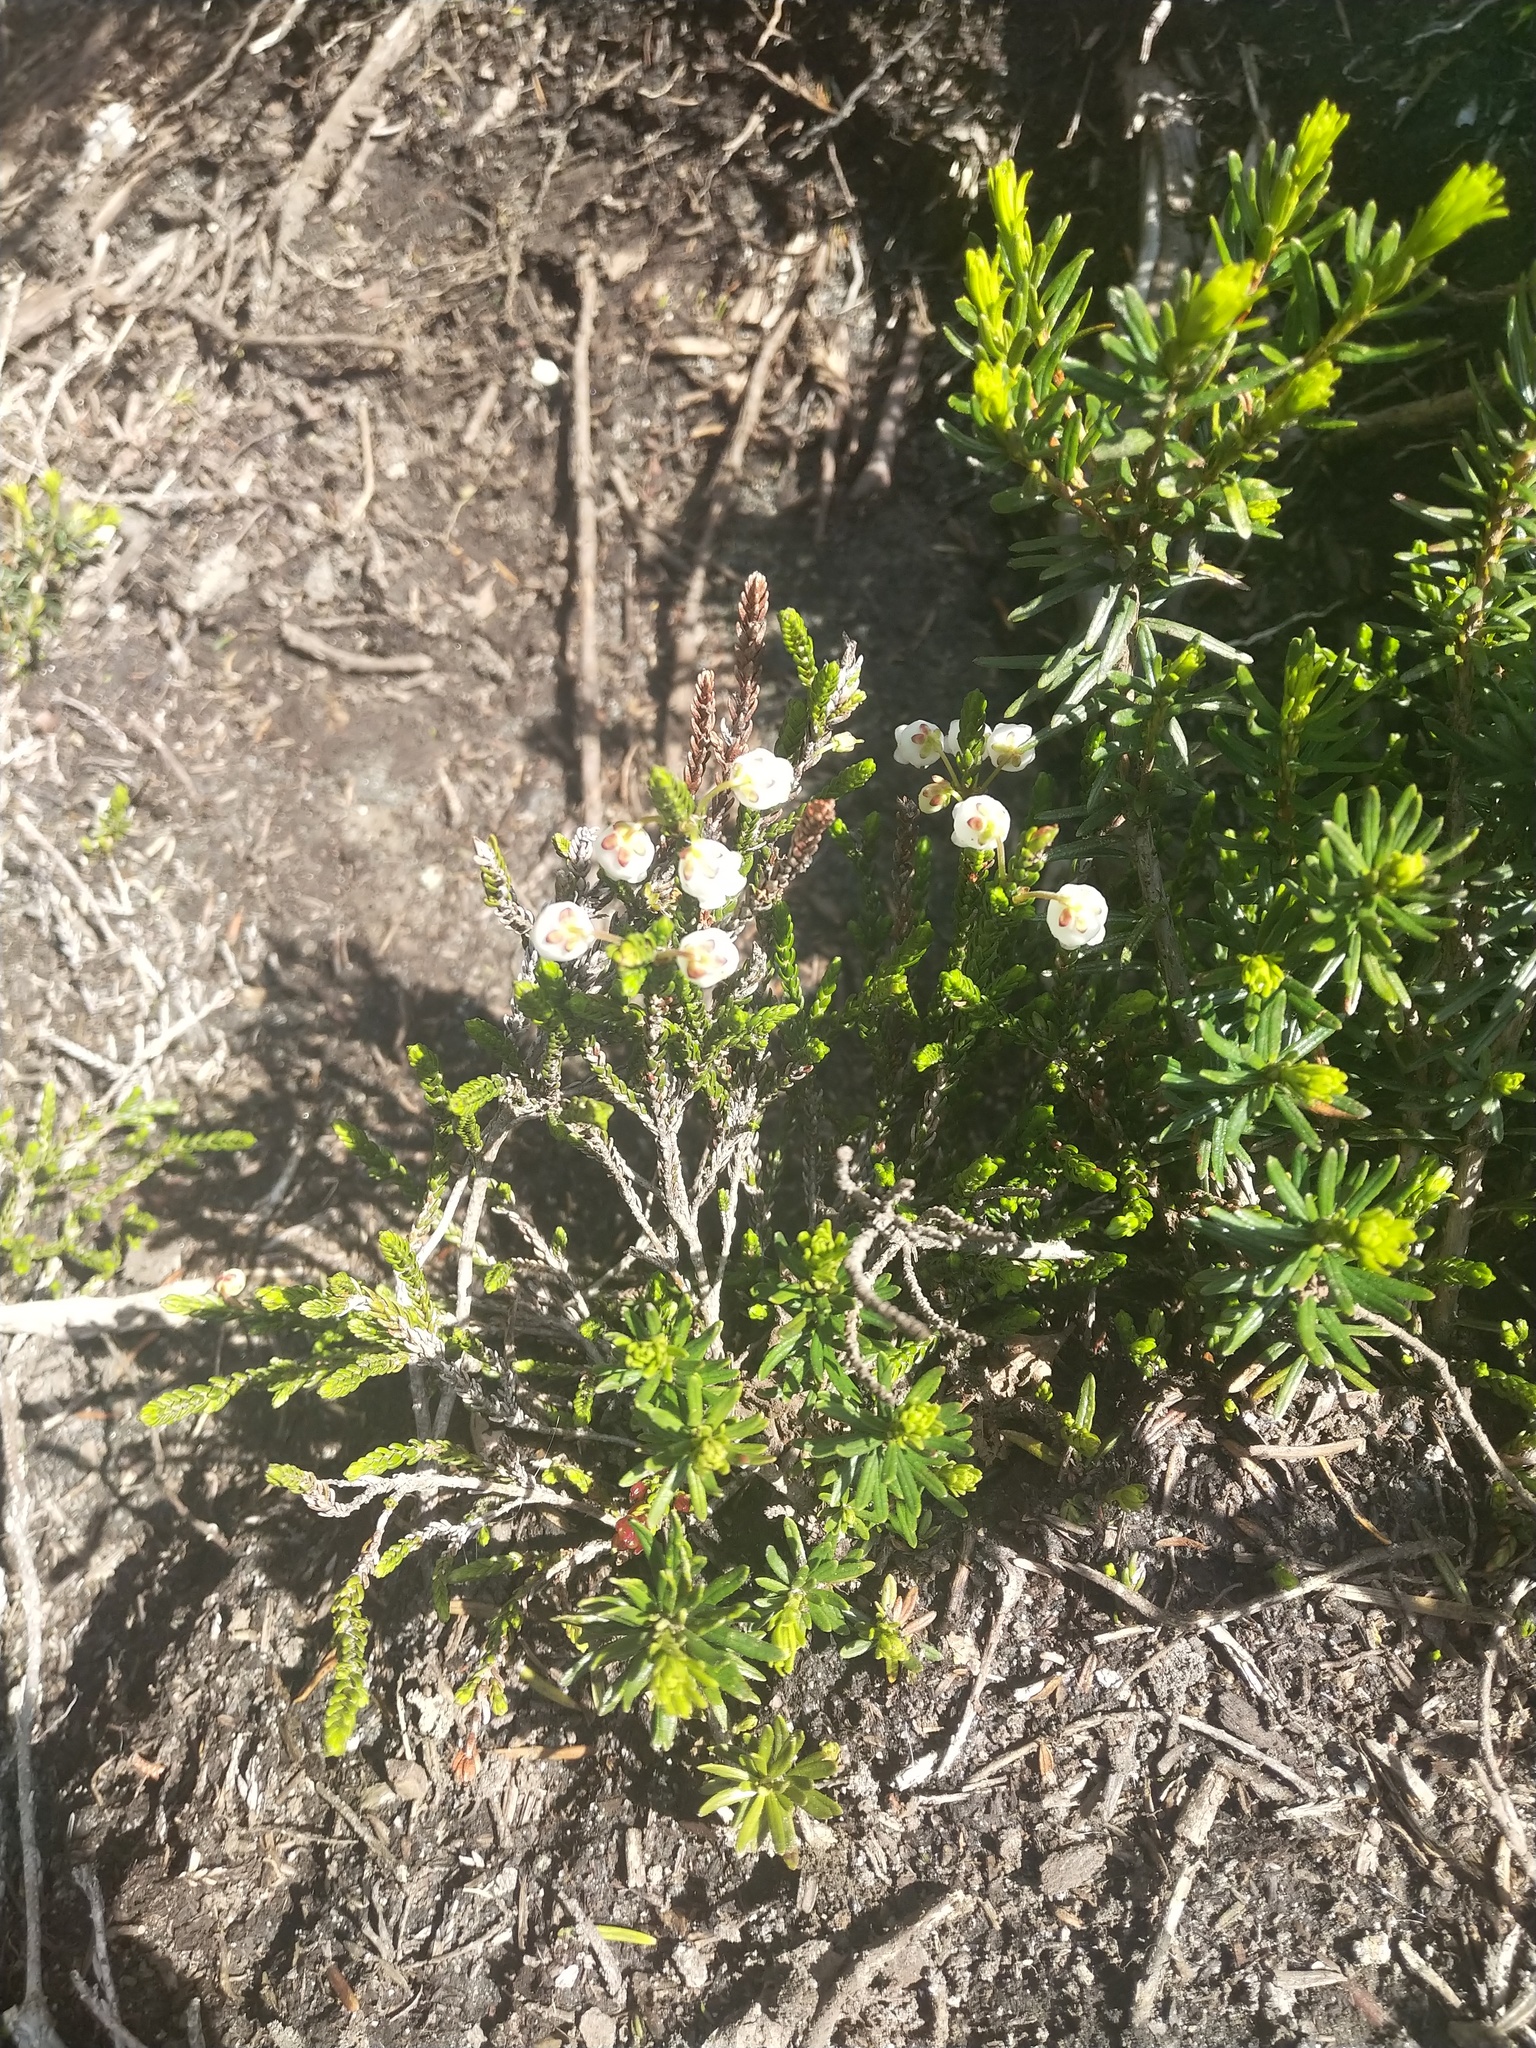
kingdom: Plantae
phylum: Tracheophyta
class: Magnoliopsida
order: Ericales
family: Ericaceae
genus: Cassiope
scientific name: Cassiope mertensiana
